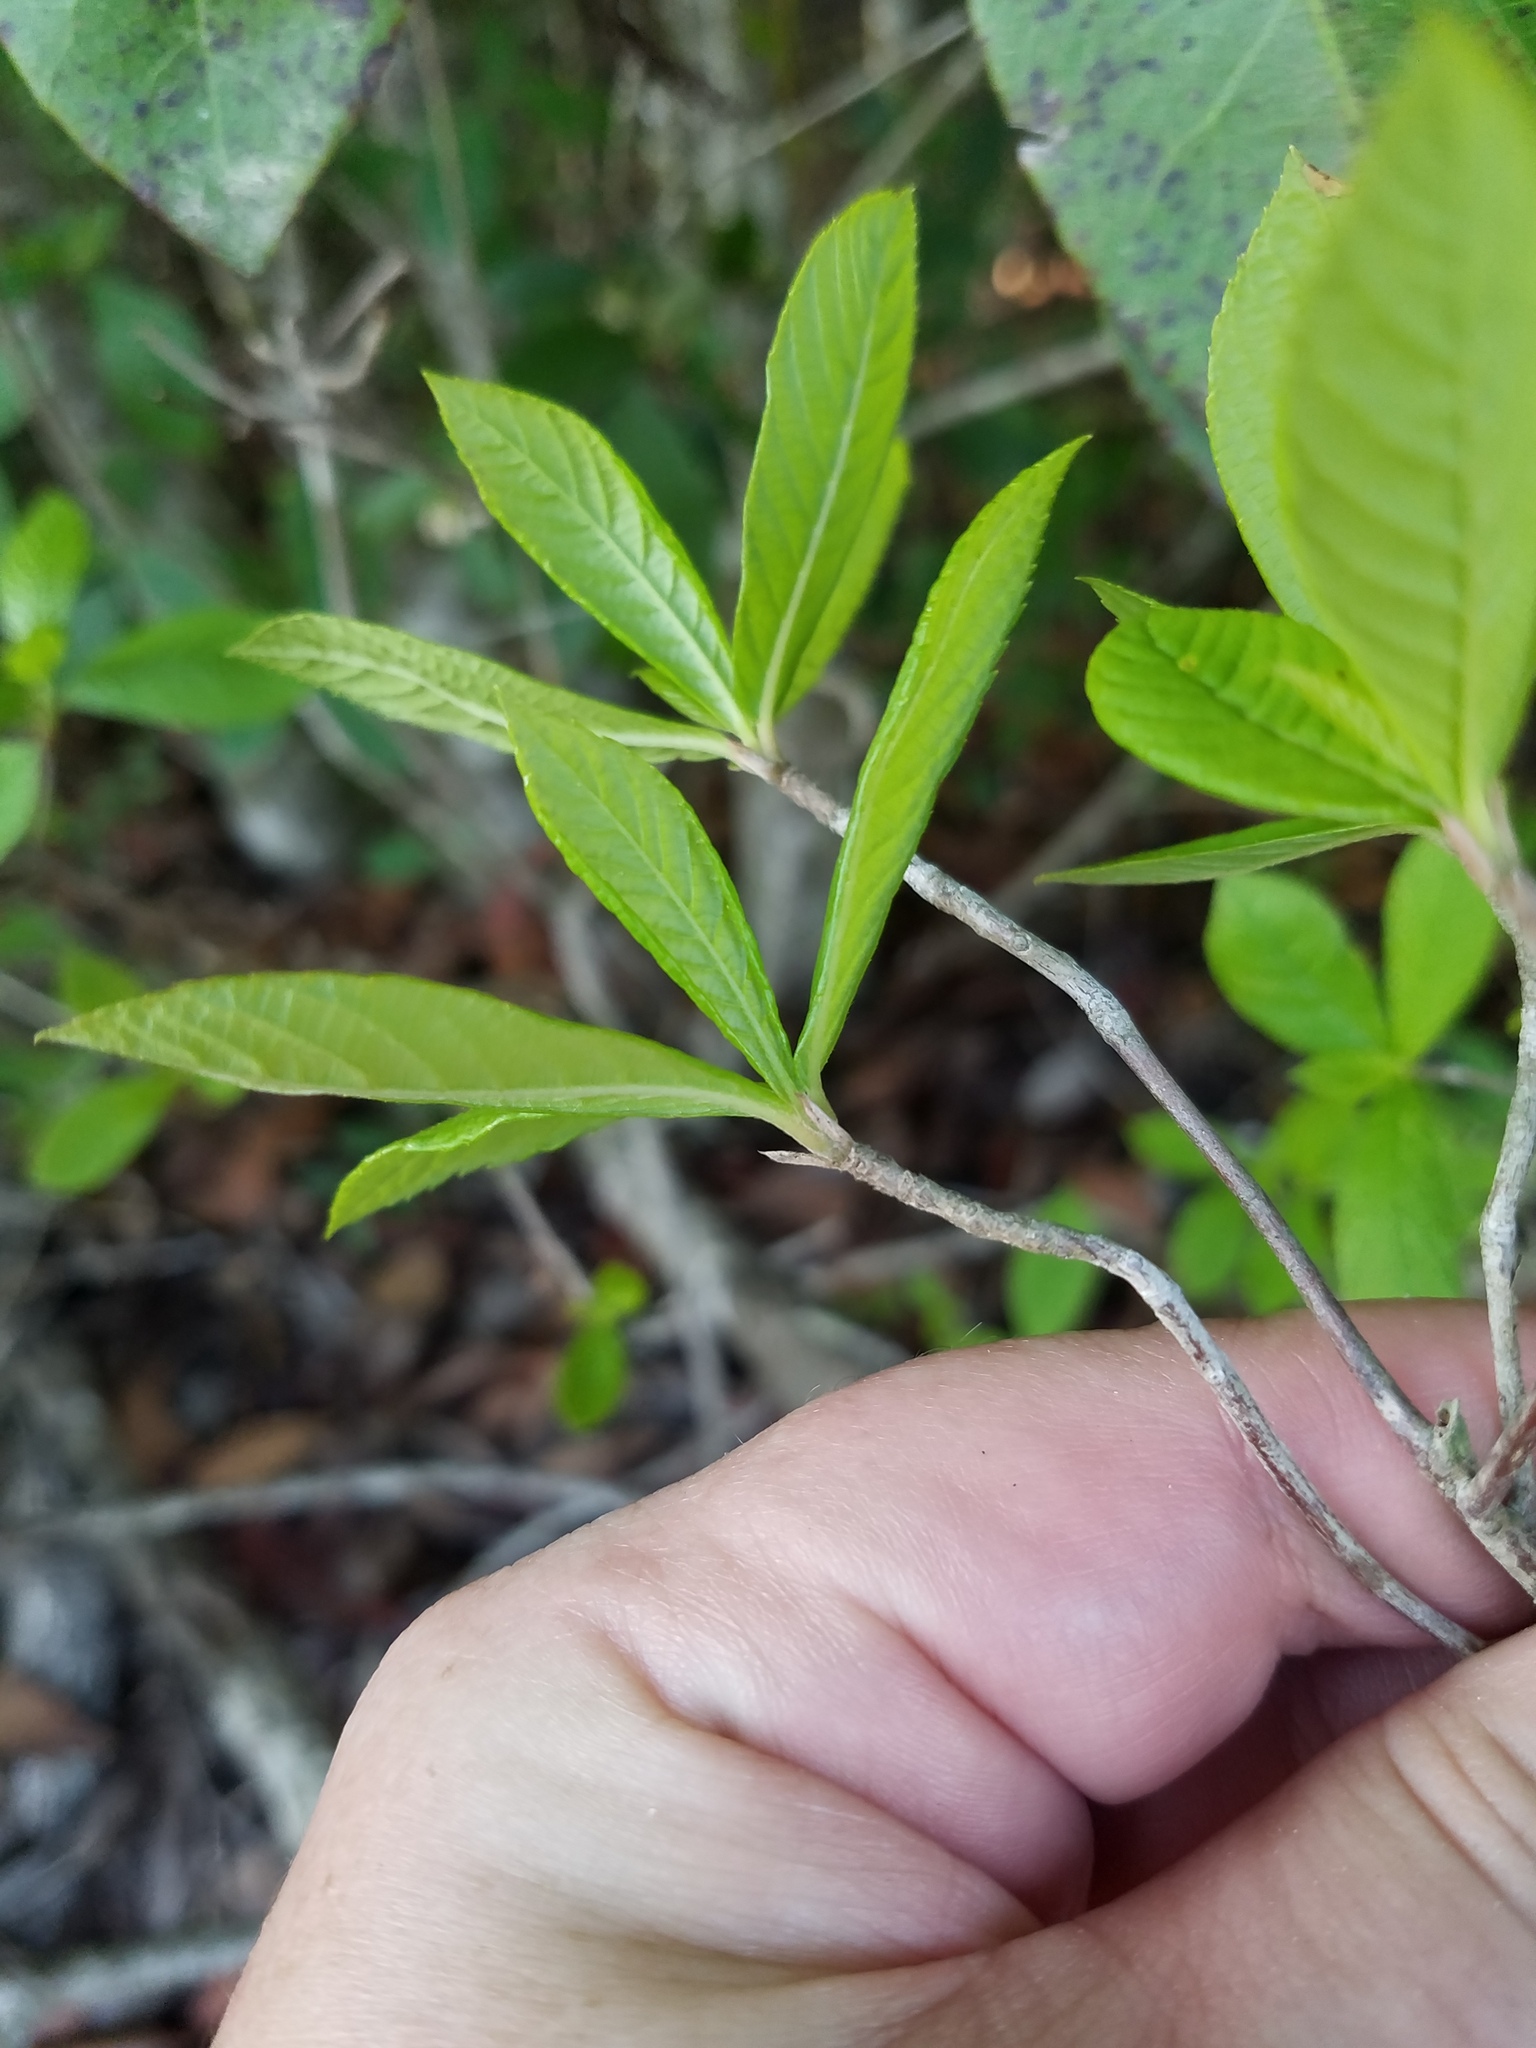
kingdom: Plantae
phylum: Tracheophyta
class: Magnoliopsida
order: Ericales
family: Clethraceae
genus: Clethra
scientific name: Clethra alnifolia
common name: Sweet pepperbush
